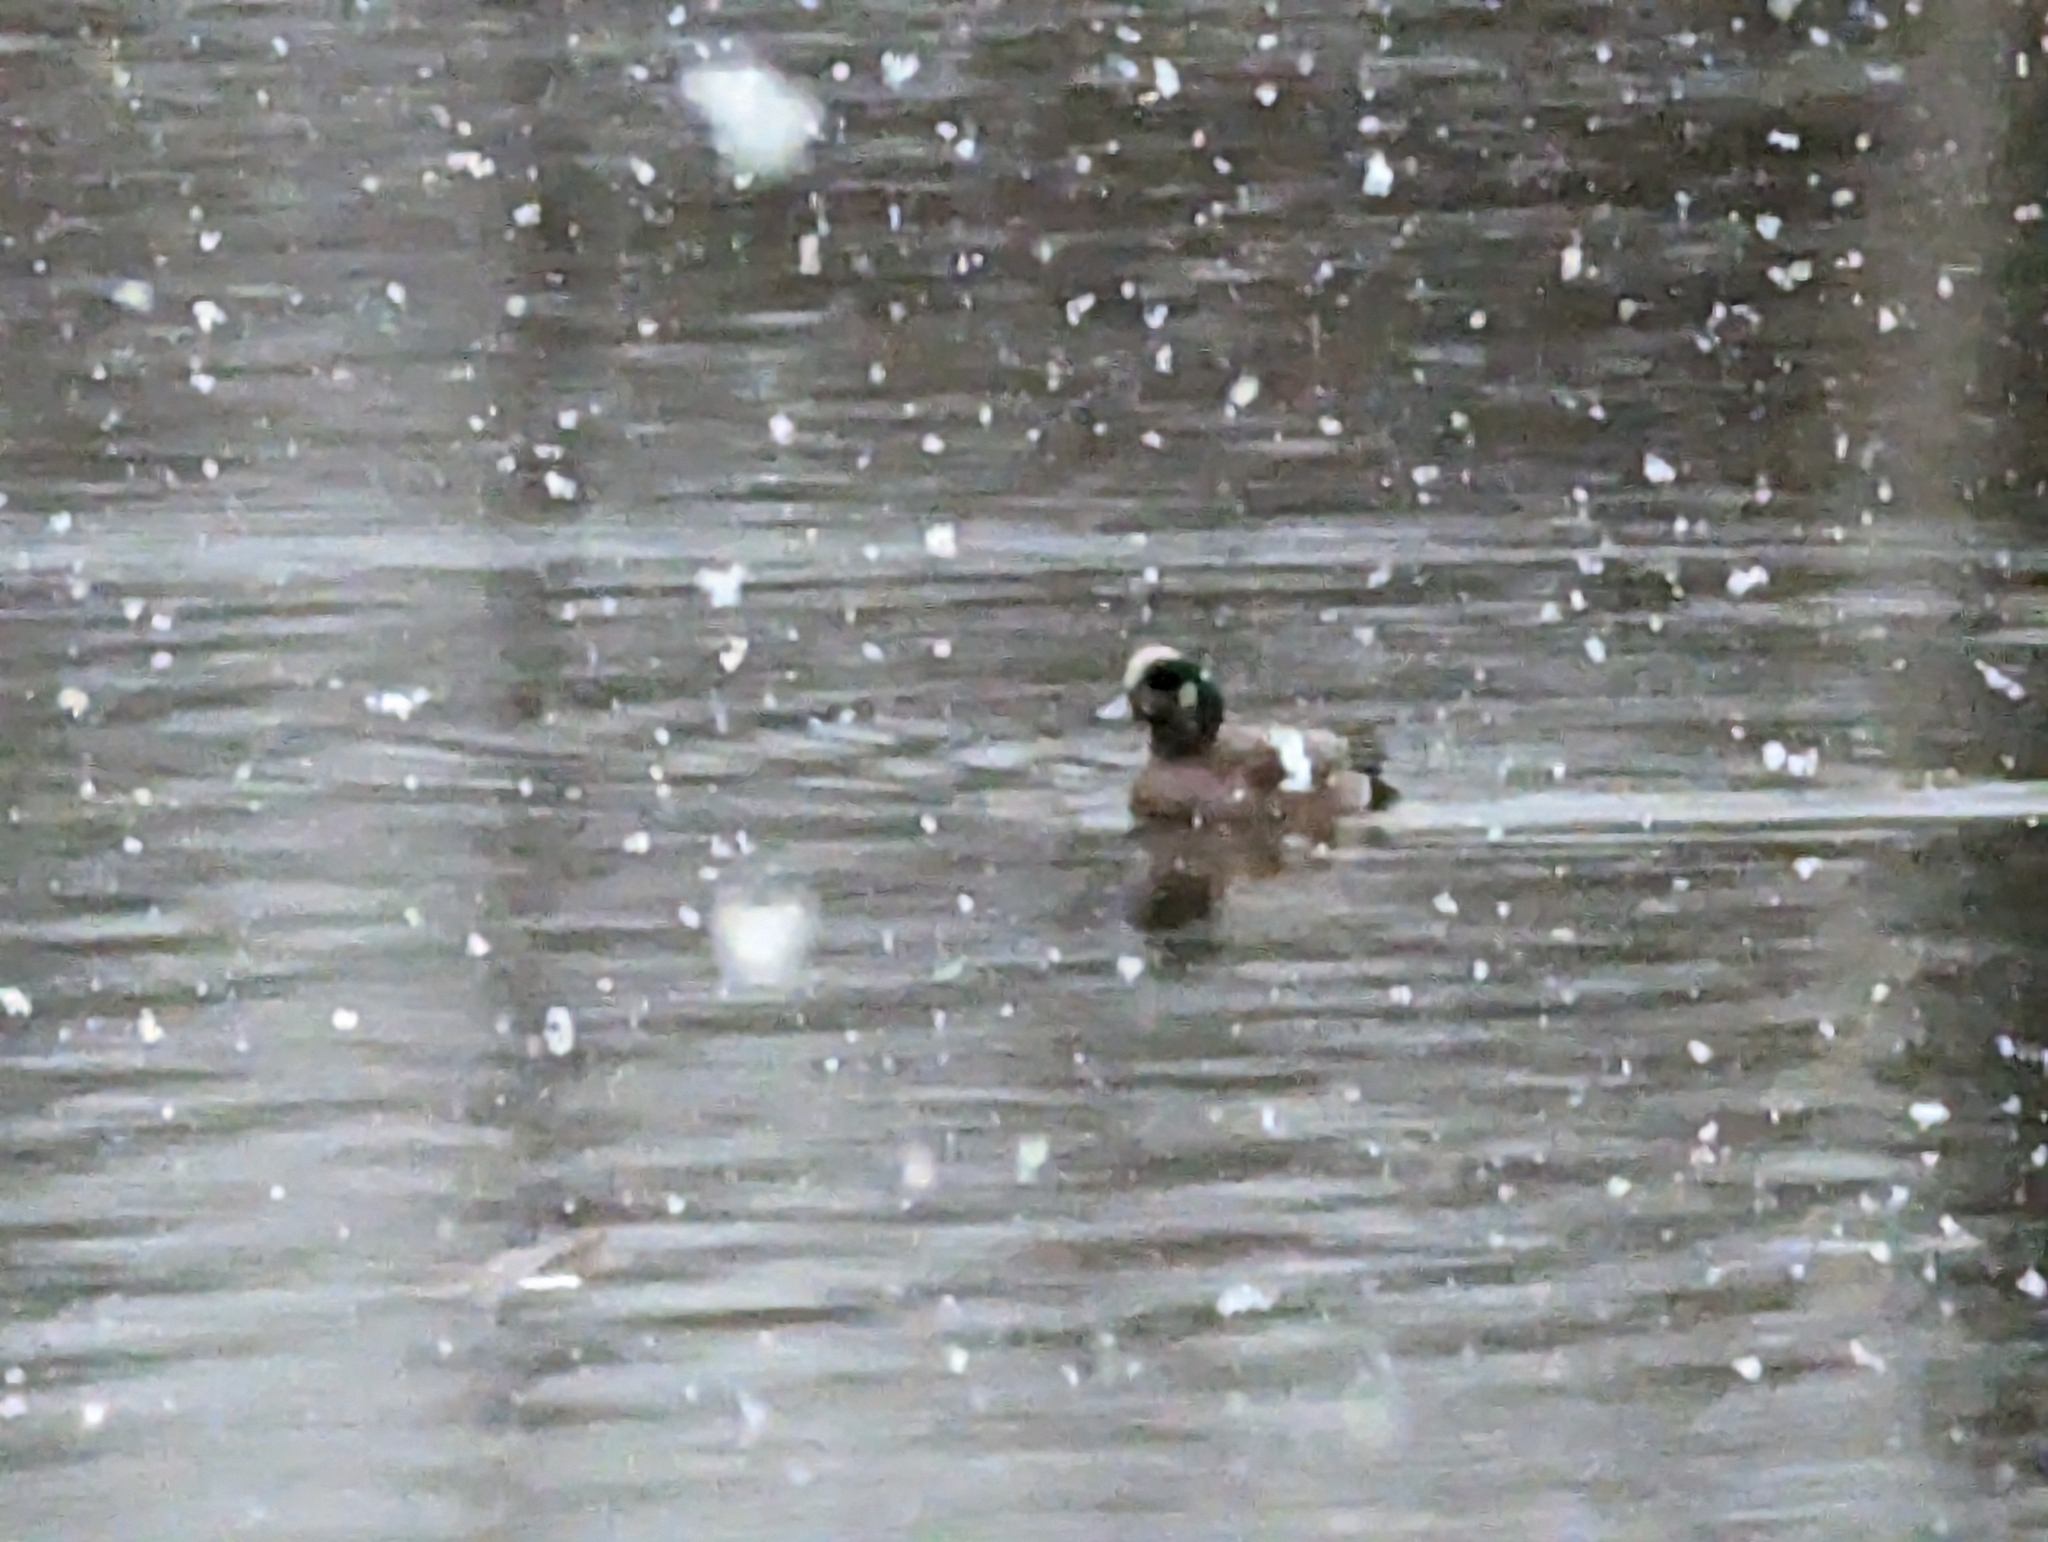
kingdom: Animalia
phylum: Chordata
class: Aves
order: Anseriformes
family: Anatidae
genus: Mareca
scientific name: Mareca americana
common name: American wigeon
